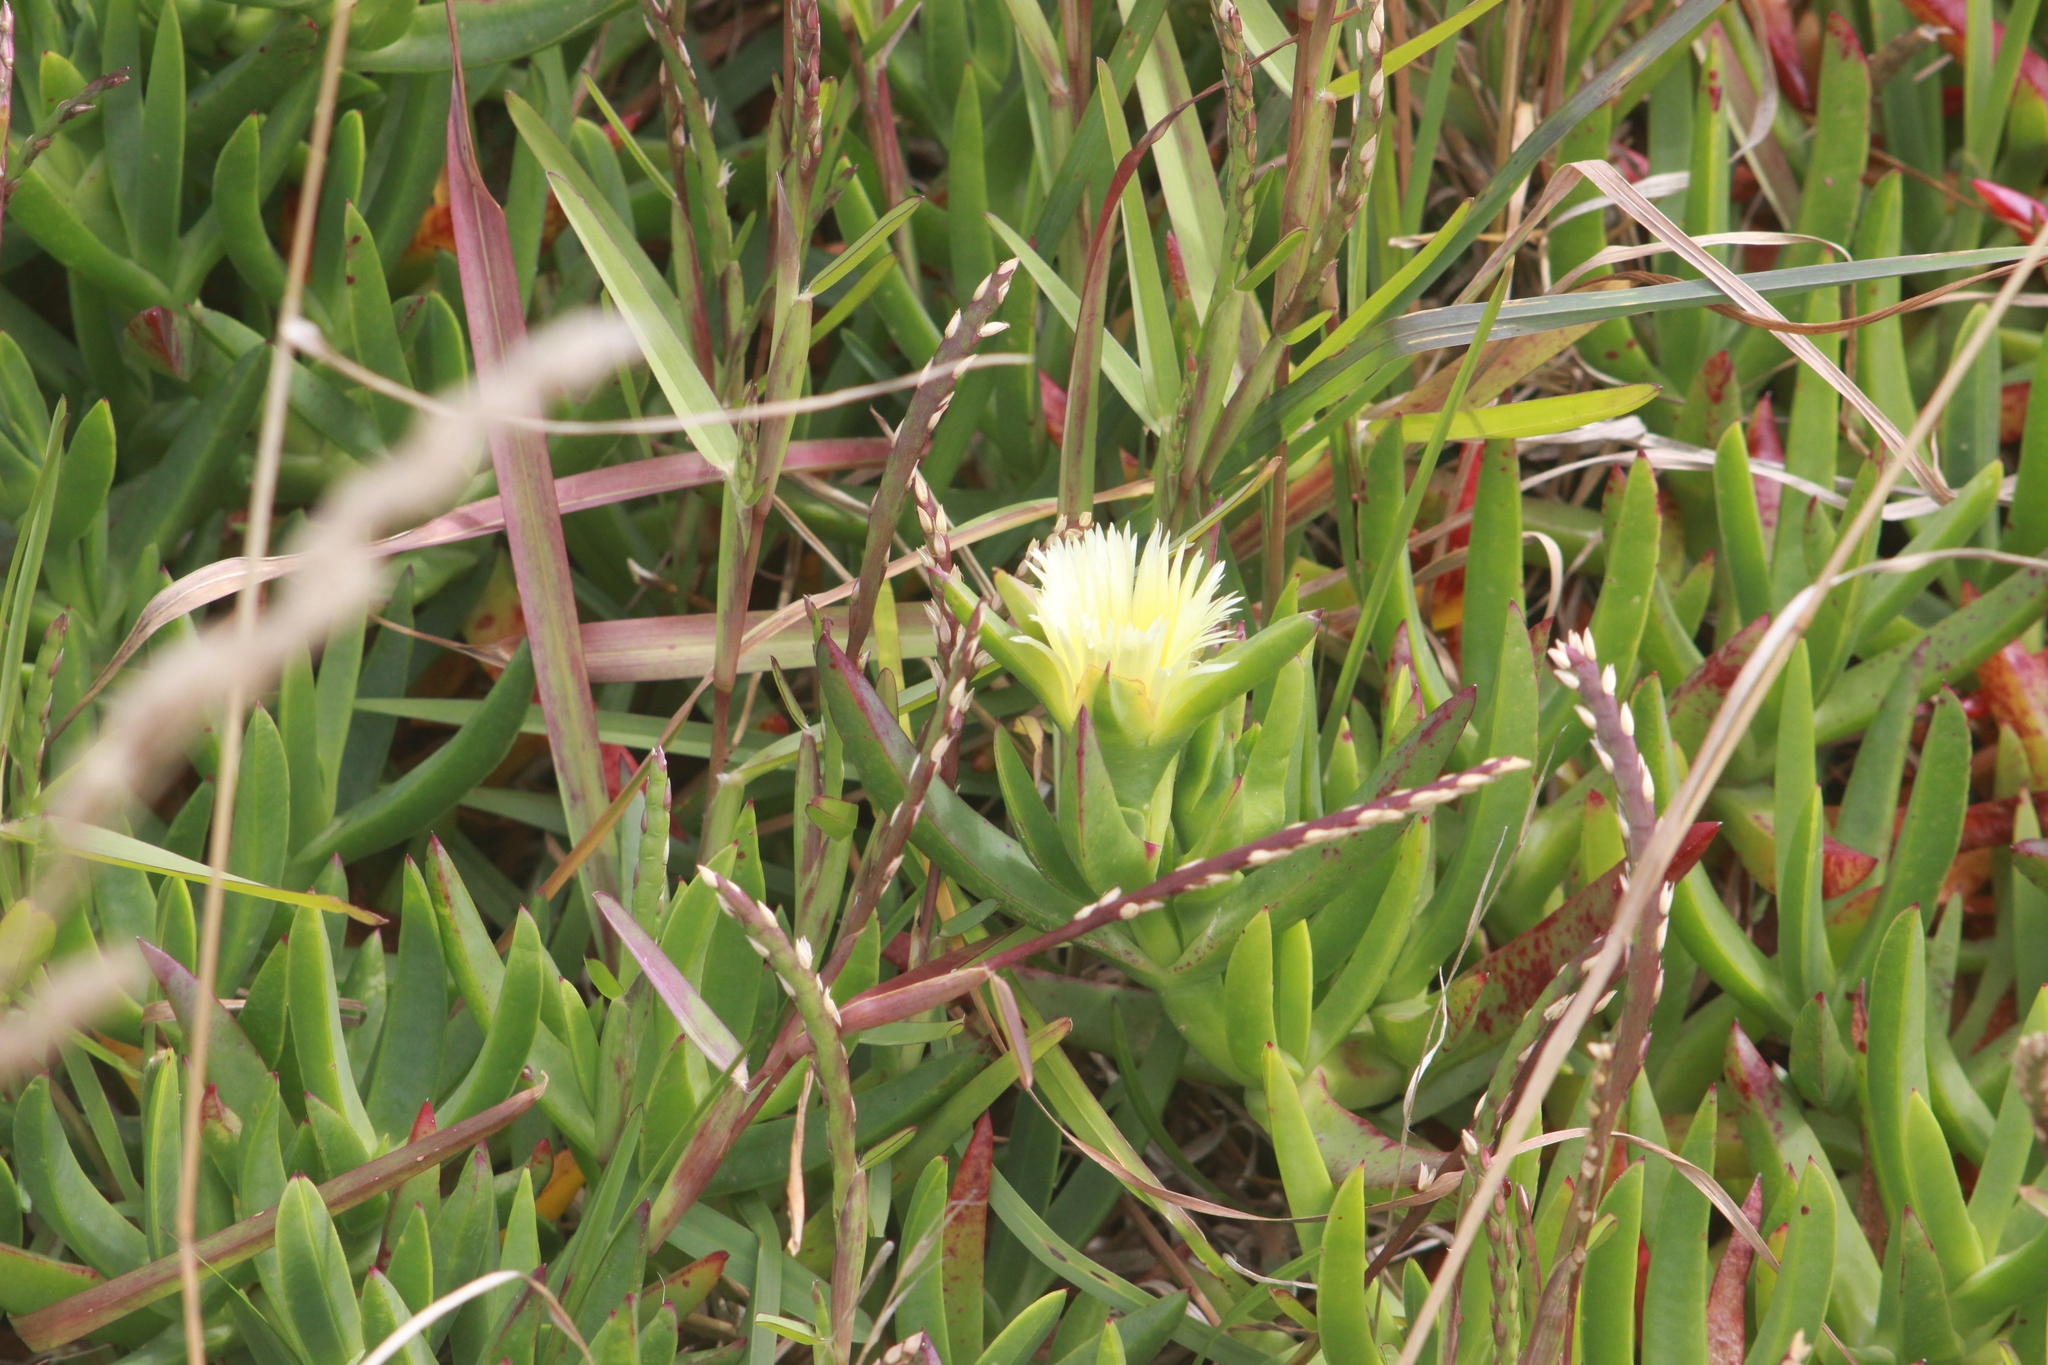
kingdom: Plantae
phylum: Tracheophyta
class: Liliopsida
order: Poales
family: Poaceae
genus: Stenotaphrum
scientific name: Stenotaphrum secundatum
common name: St. augustine grass
